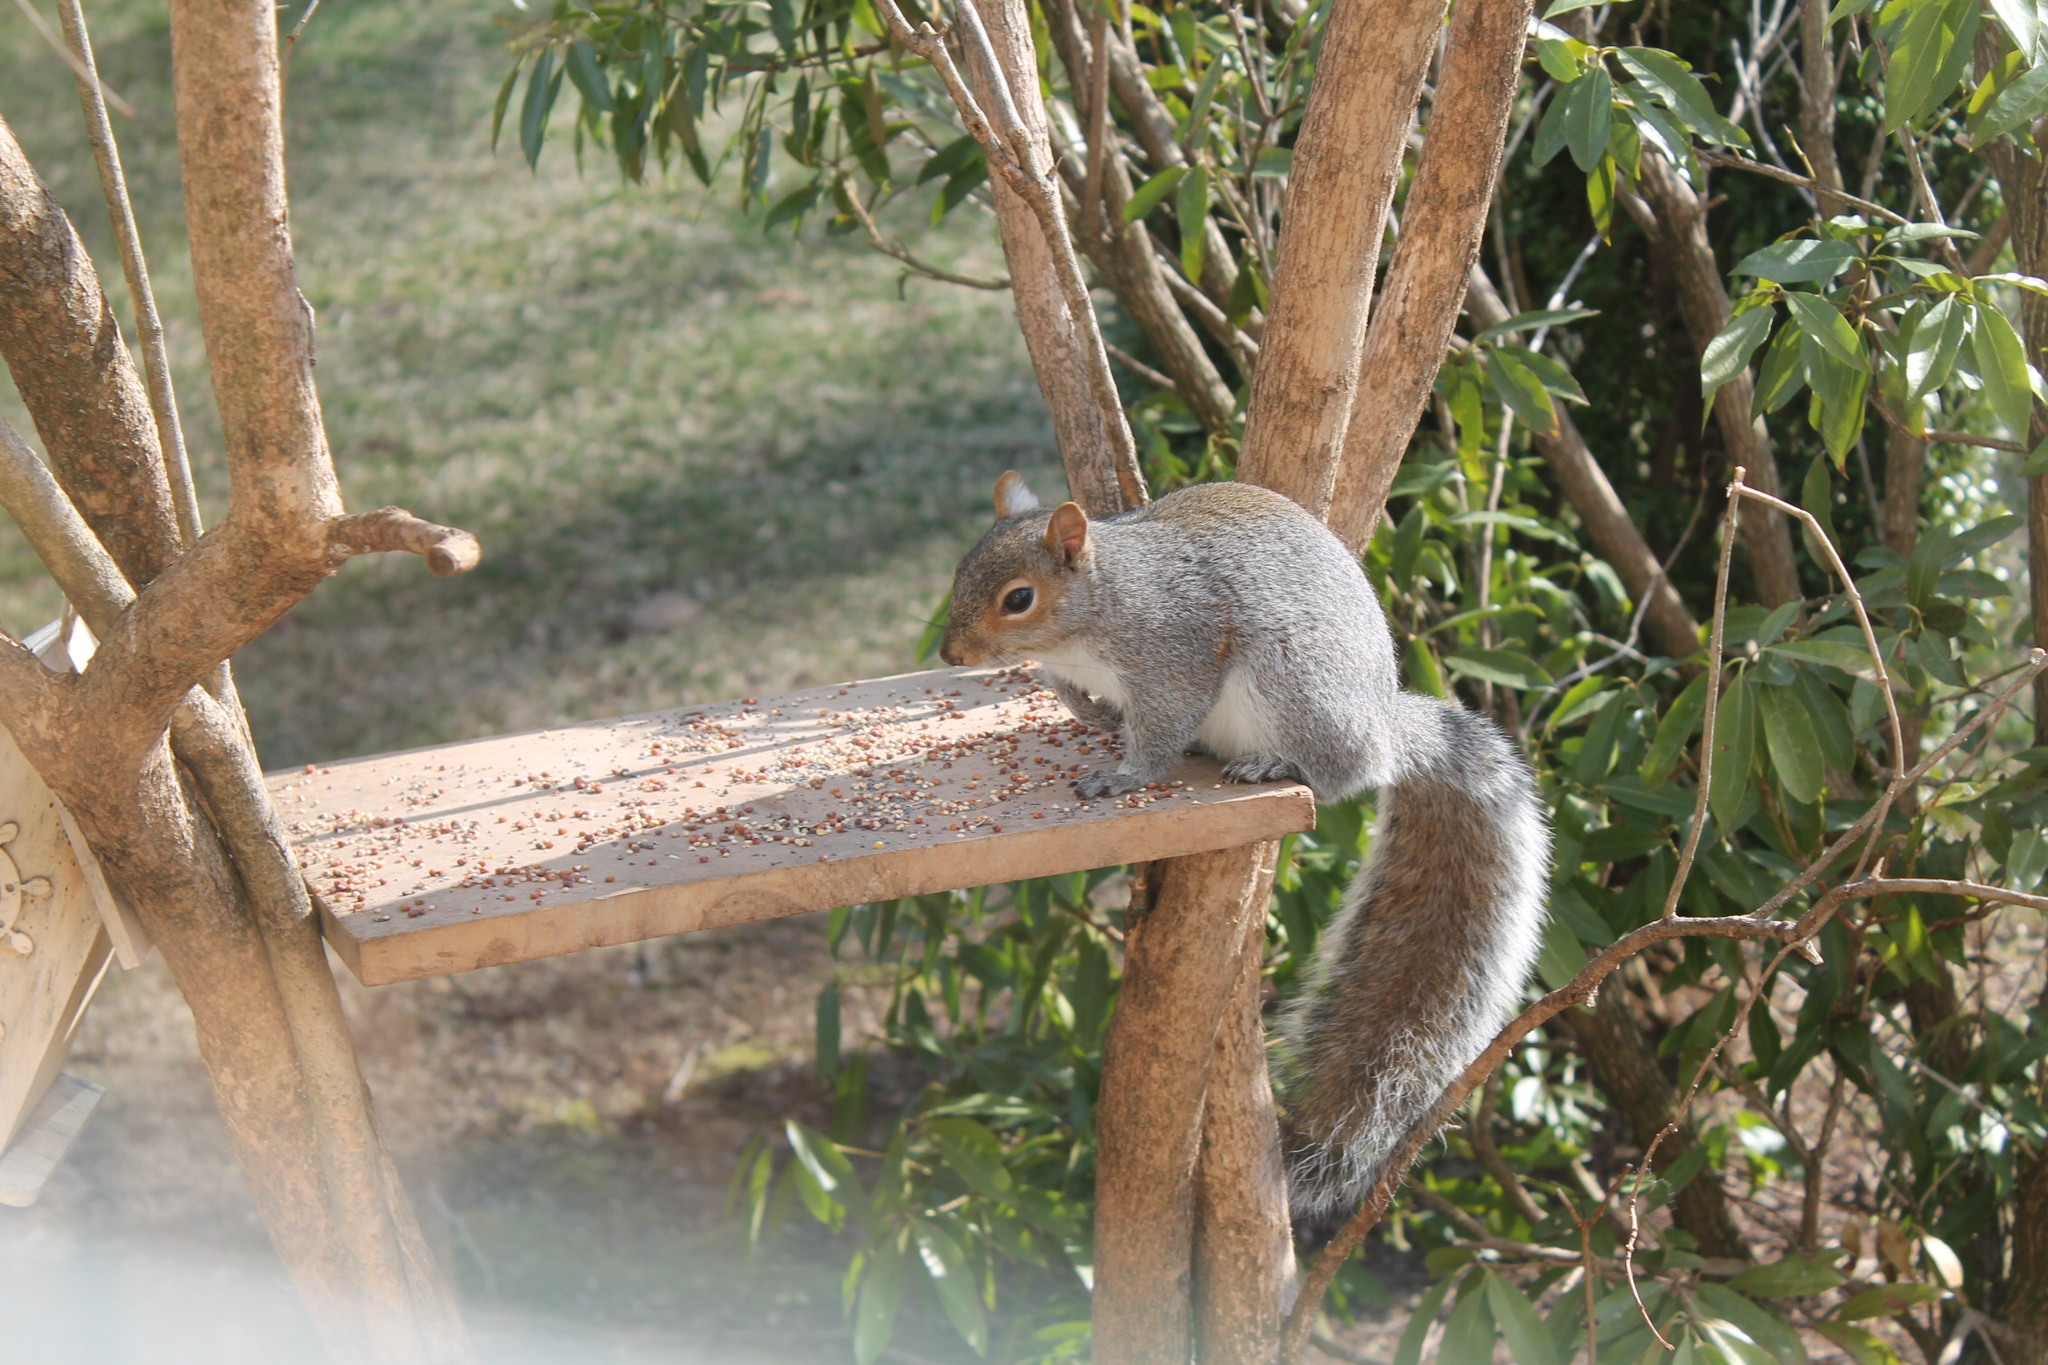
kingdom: Animalia
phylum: Chordata
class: Mammalia
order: Rodentia
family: Sciuridae
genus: Sciurus
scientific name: Sciurus carolinensis
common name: Eastern gray squirrel
